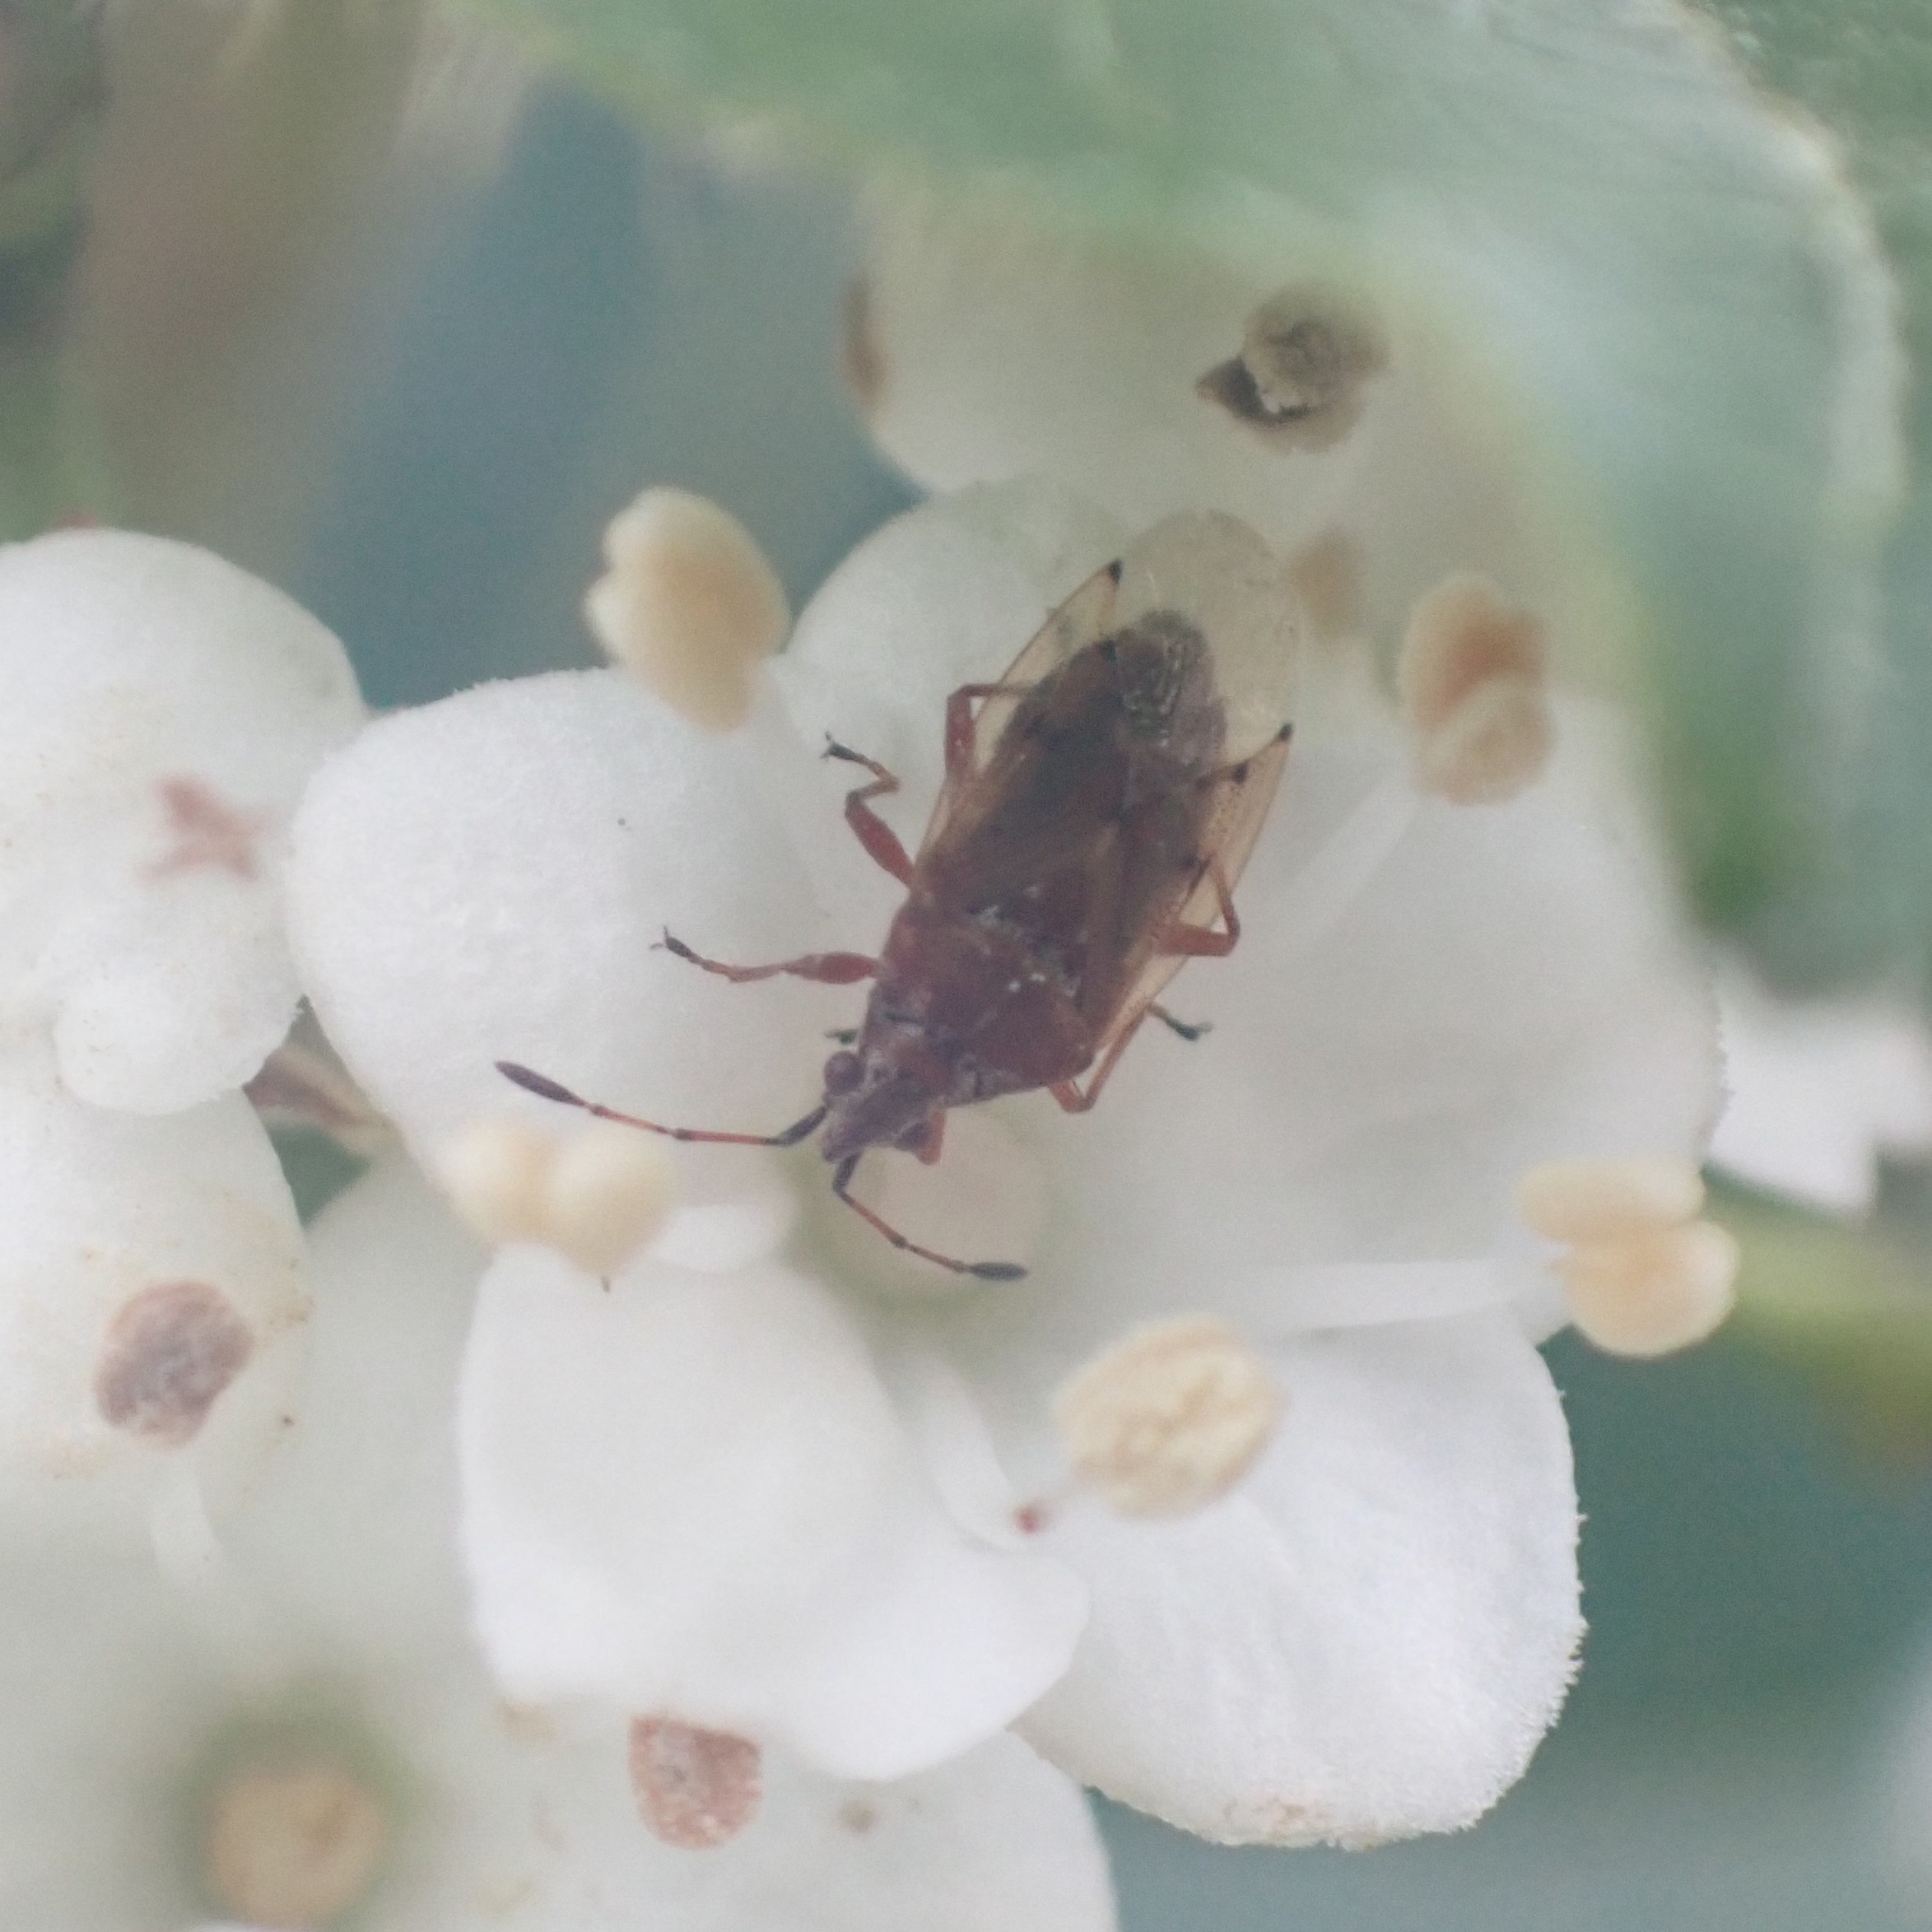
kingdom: Animalia
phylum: Arthropoda
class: Insecta
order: Hemiptera
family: Lygaeidae
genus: Kleidocerys
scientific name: Kleidocerys resedae
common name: Birch catkin bug
